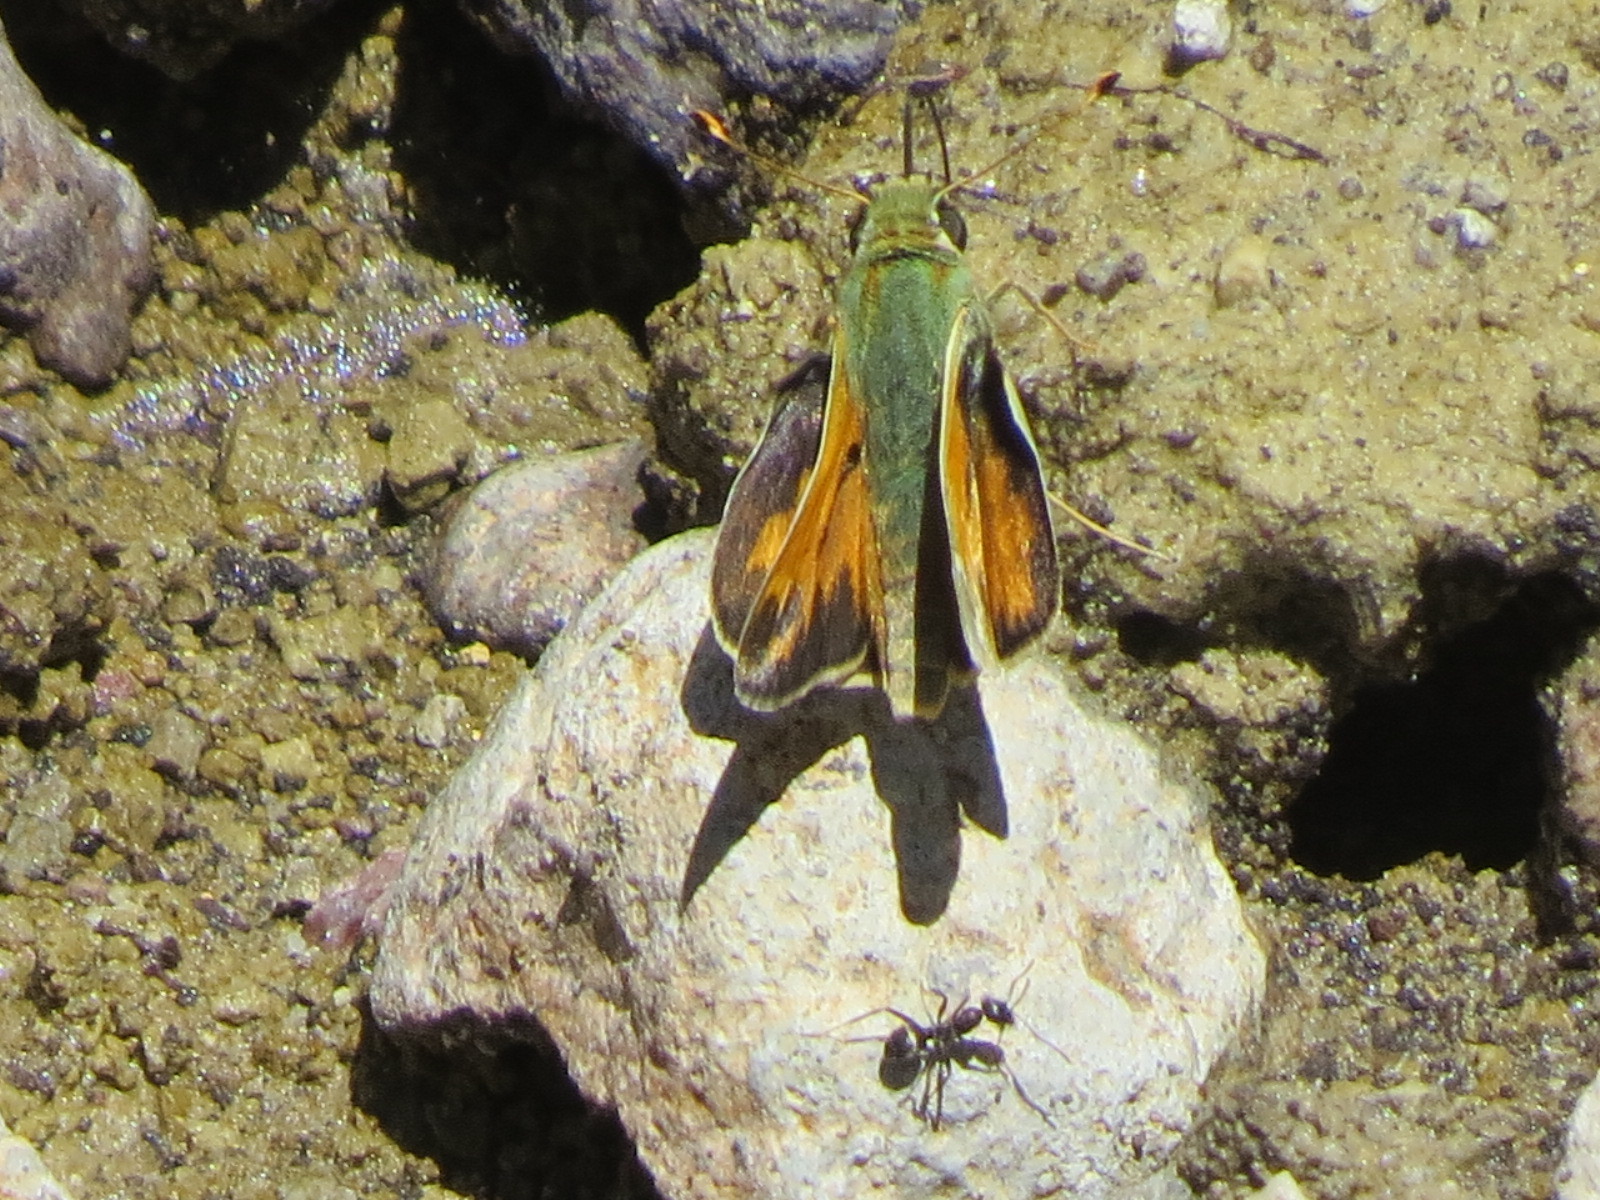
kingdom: Animalia
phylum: Arthropoda
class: Insecta
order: Lepidoptera
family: Hesperiidae
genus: Hesperia
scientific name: Hesperia juba
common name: Juba skipper
